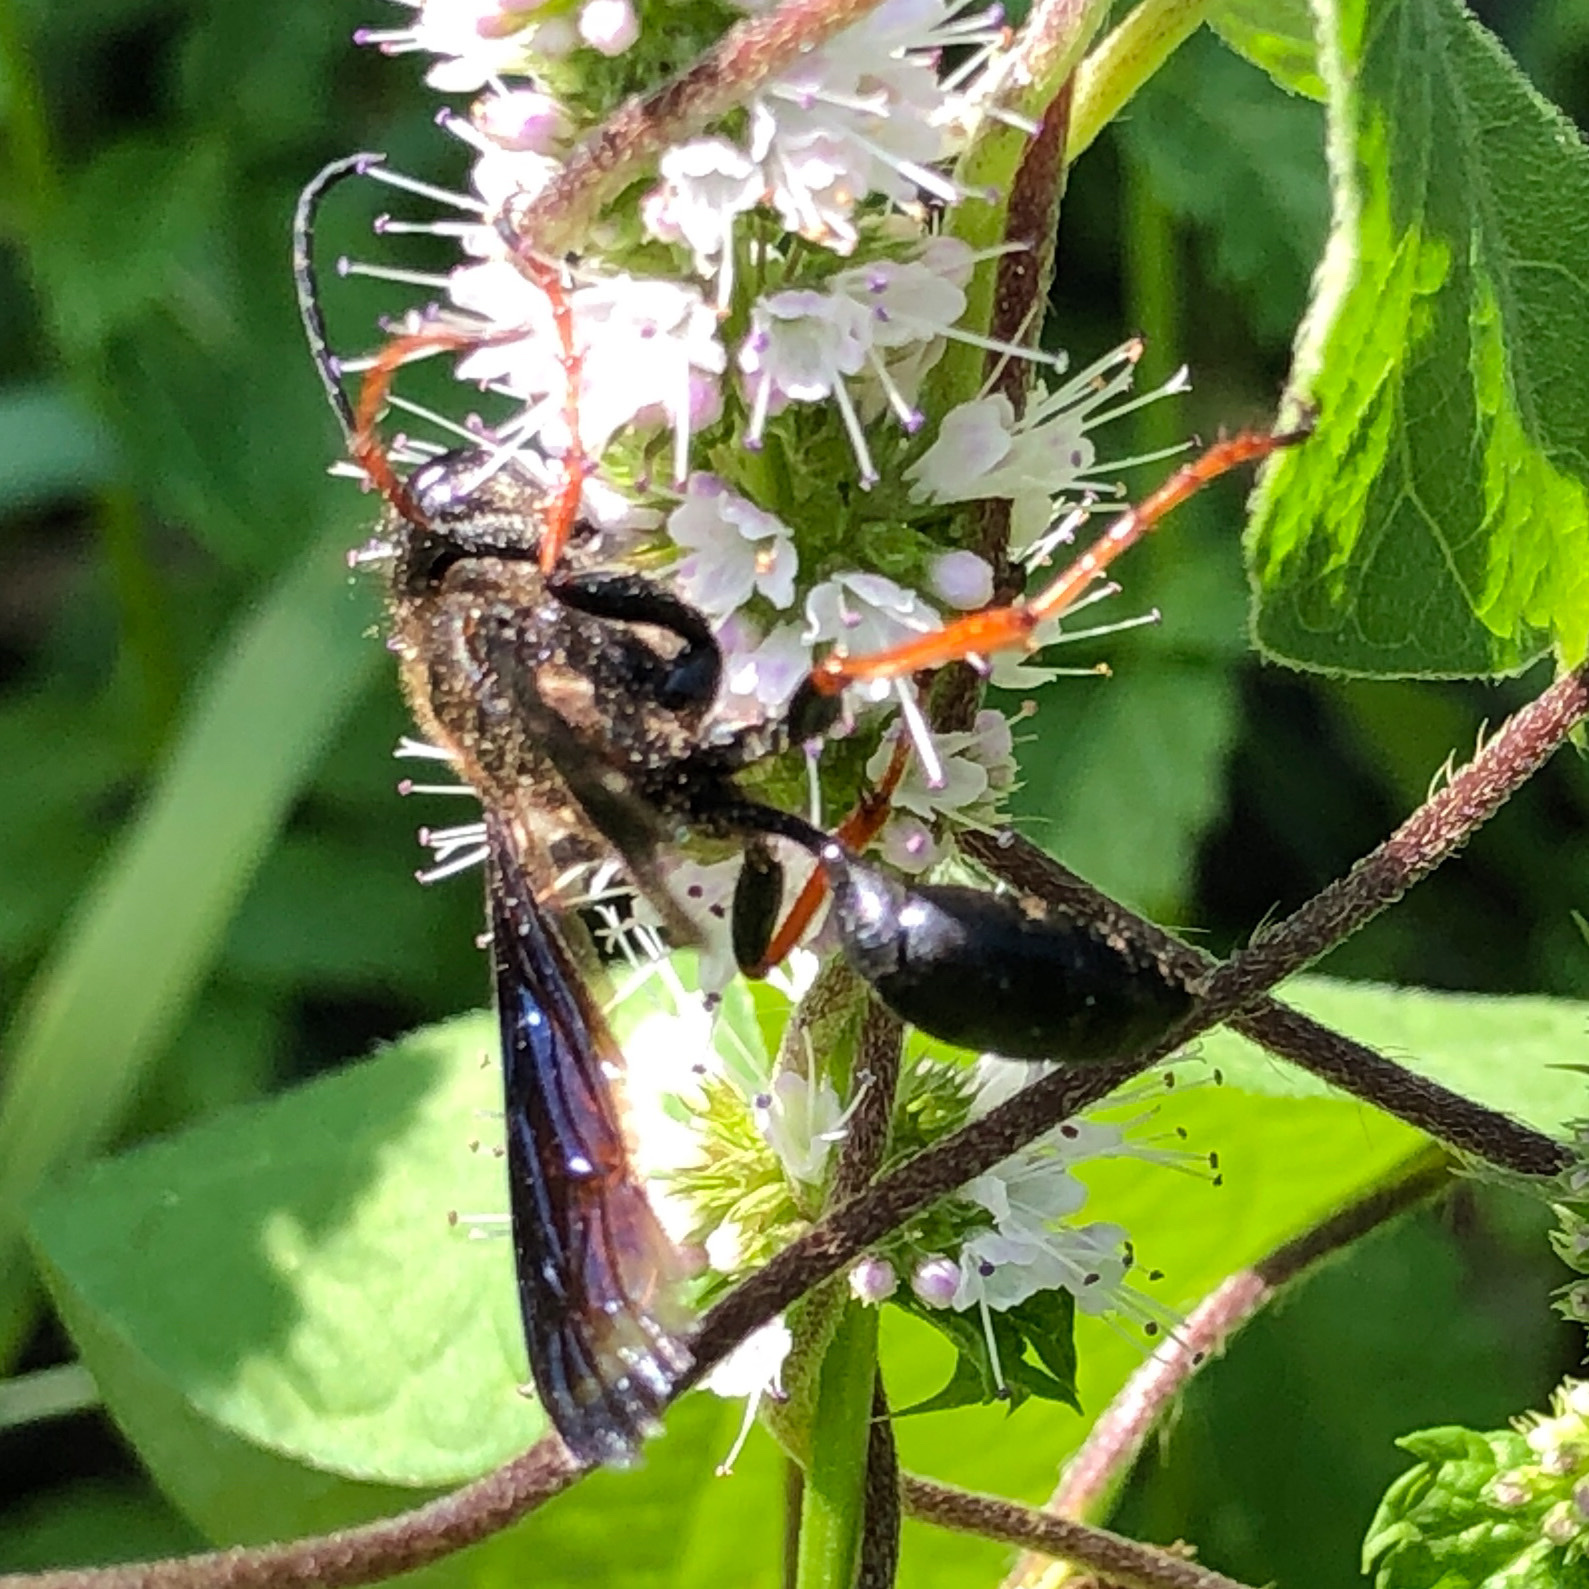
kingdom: Animalia
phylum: Arthropoda
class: Insecta
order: Hymenoptera
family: Sphecidae
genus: Isodontia
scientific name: Isodontia auripes
